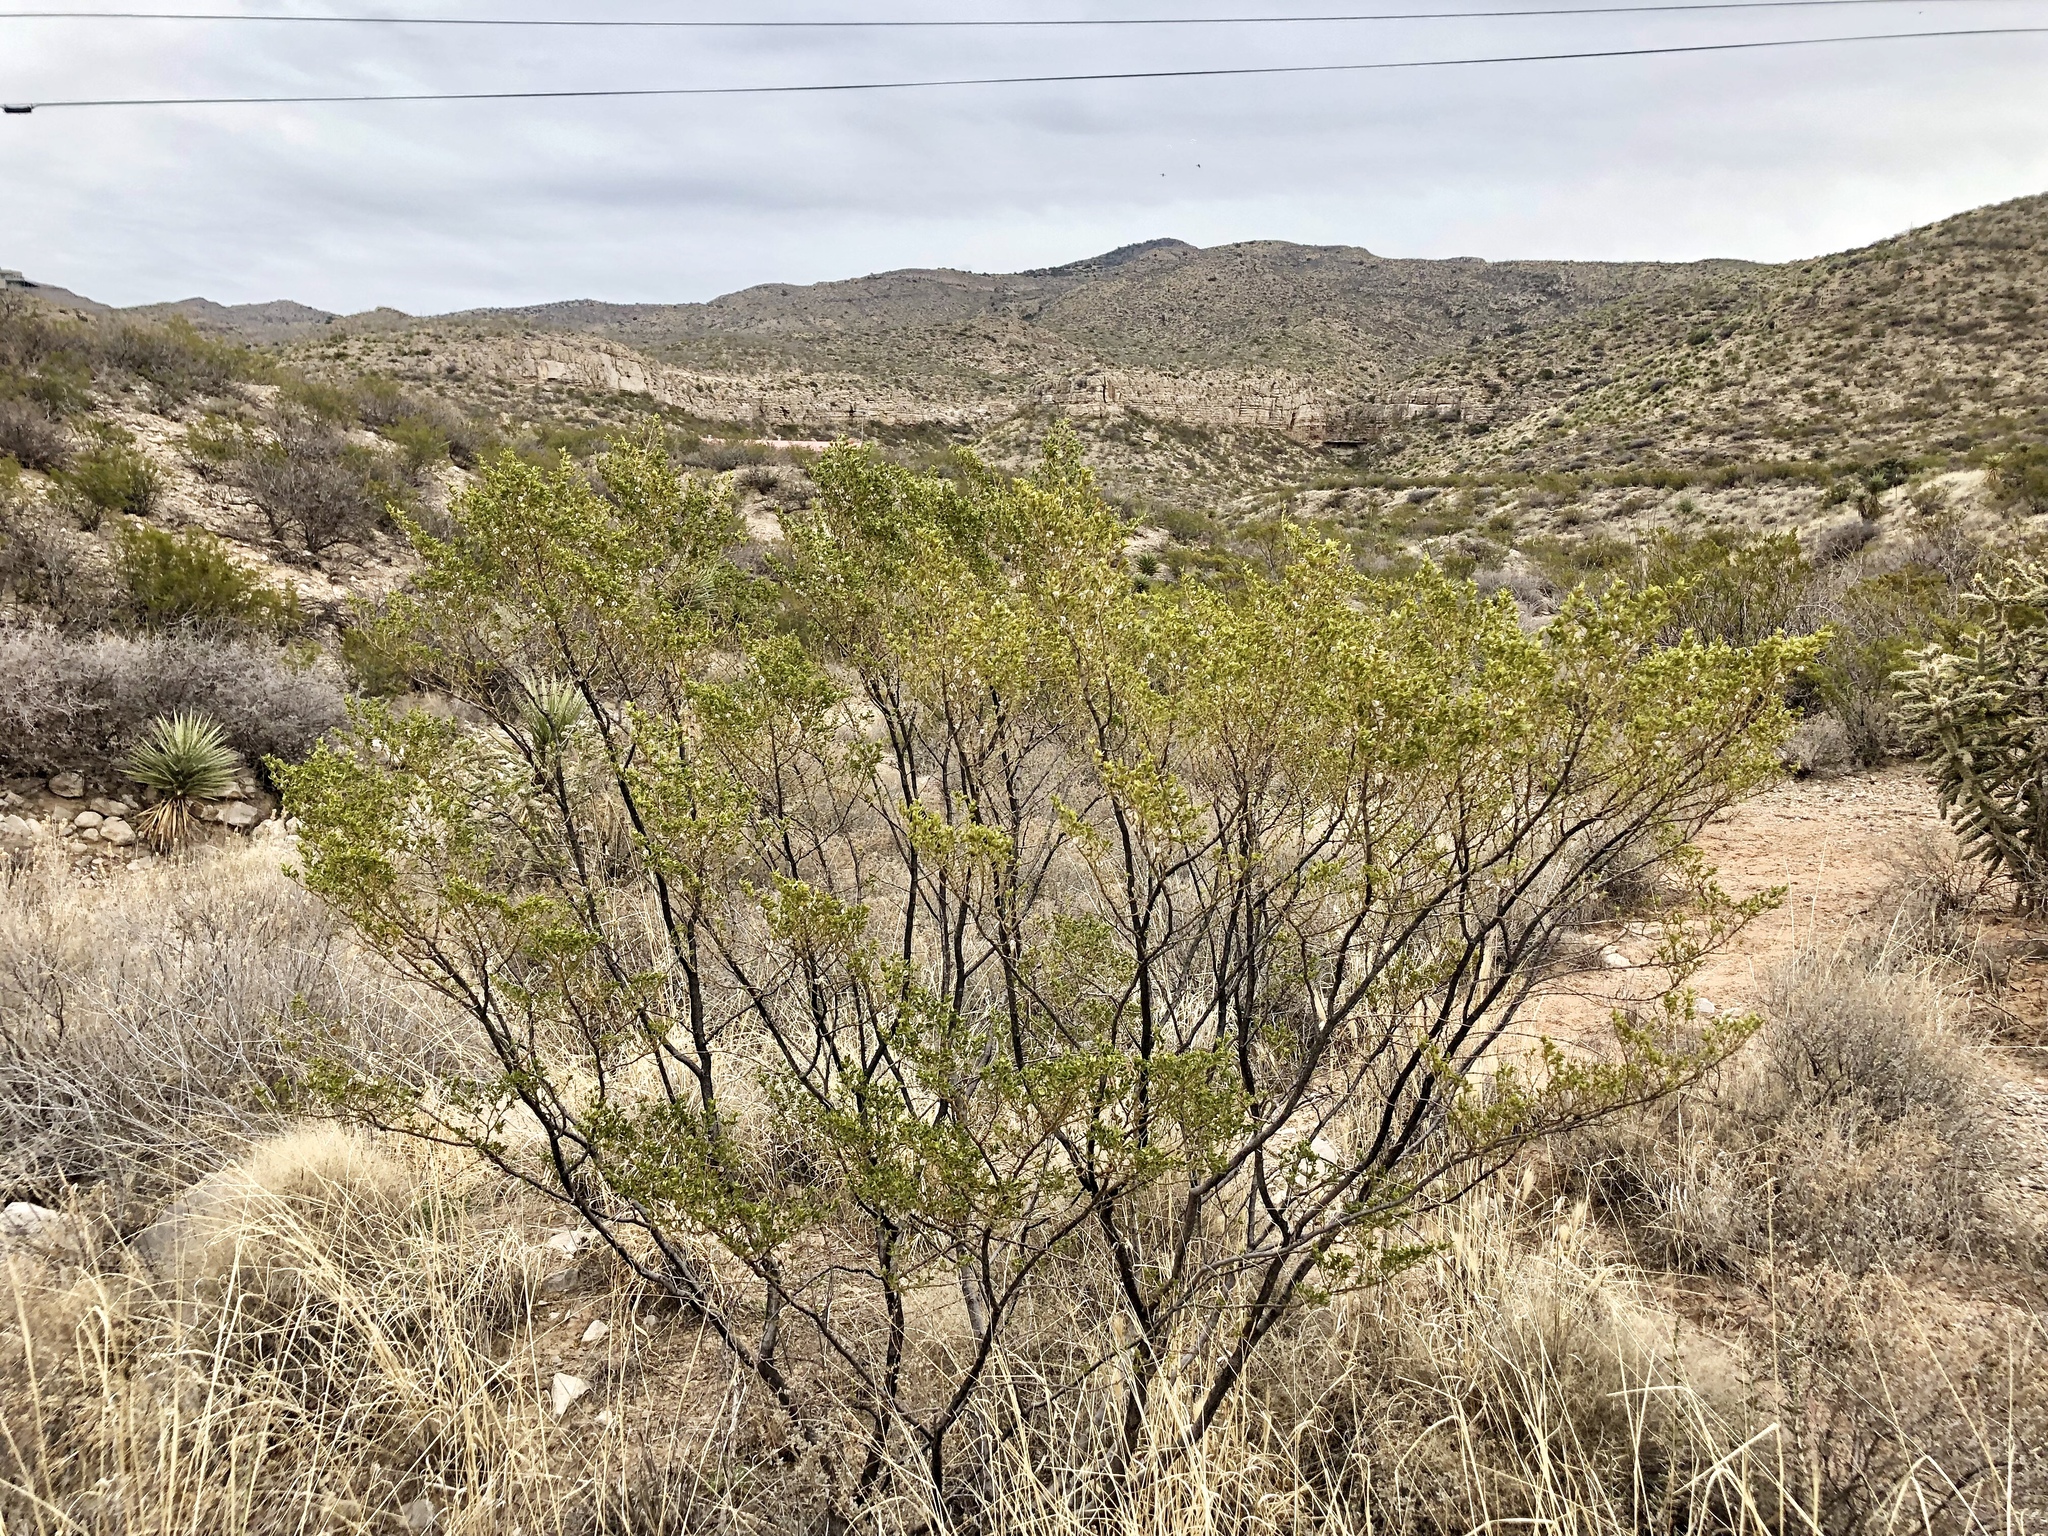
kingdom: Plantae
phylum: Tracheophyta
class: Magnoliopsida
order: Zygophyllales
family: Zygophyllaceae
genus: Larrea
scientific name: Larrea tridentata
